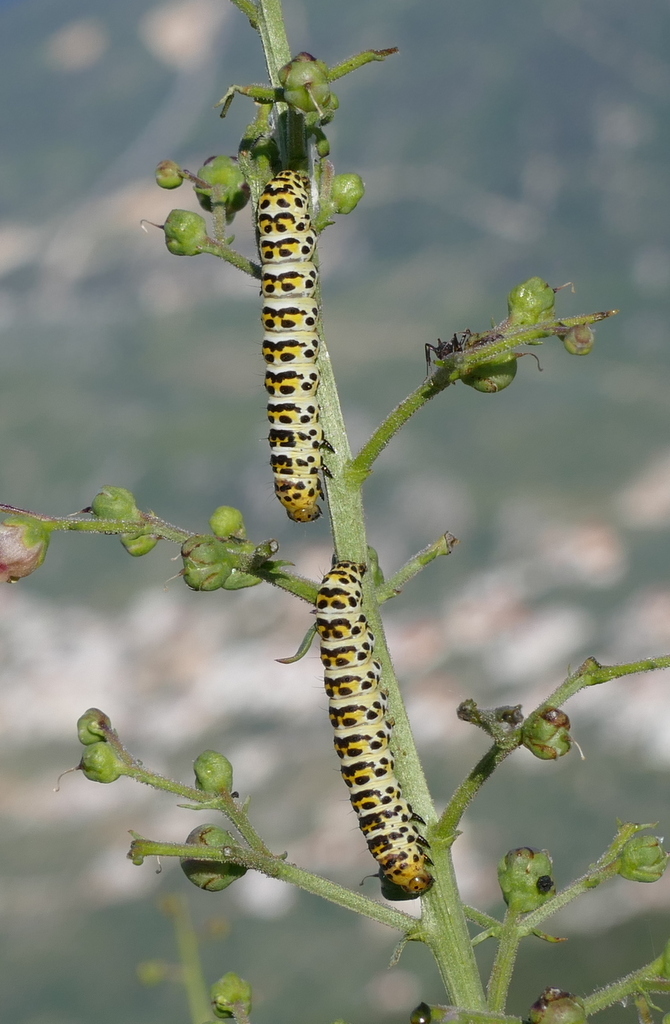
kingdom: Animalia
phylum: Arthropoda
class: Insecta
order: Lepidoptera
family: Noctuidae
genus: Cucullia
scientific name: Cucullia verbasci
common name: Mullein
